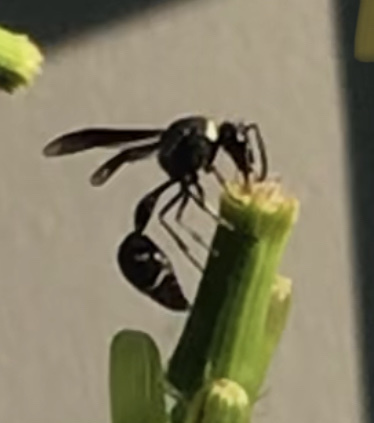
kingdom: Animalia
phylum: Arthropoda
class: Insecta
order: Hymenoptera
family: Vespidae
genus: Eumenes
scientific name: Eumenes fraternus
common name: Fraternal potter wasp
